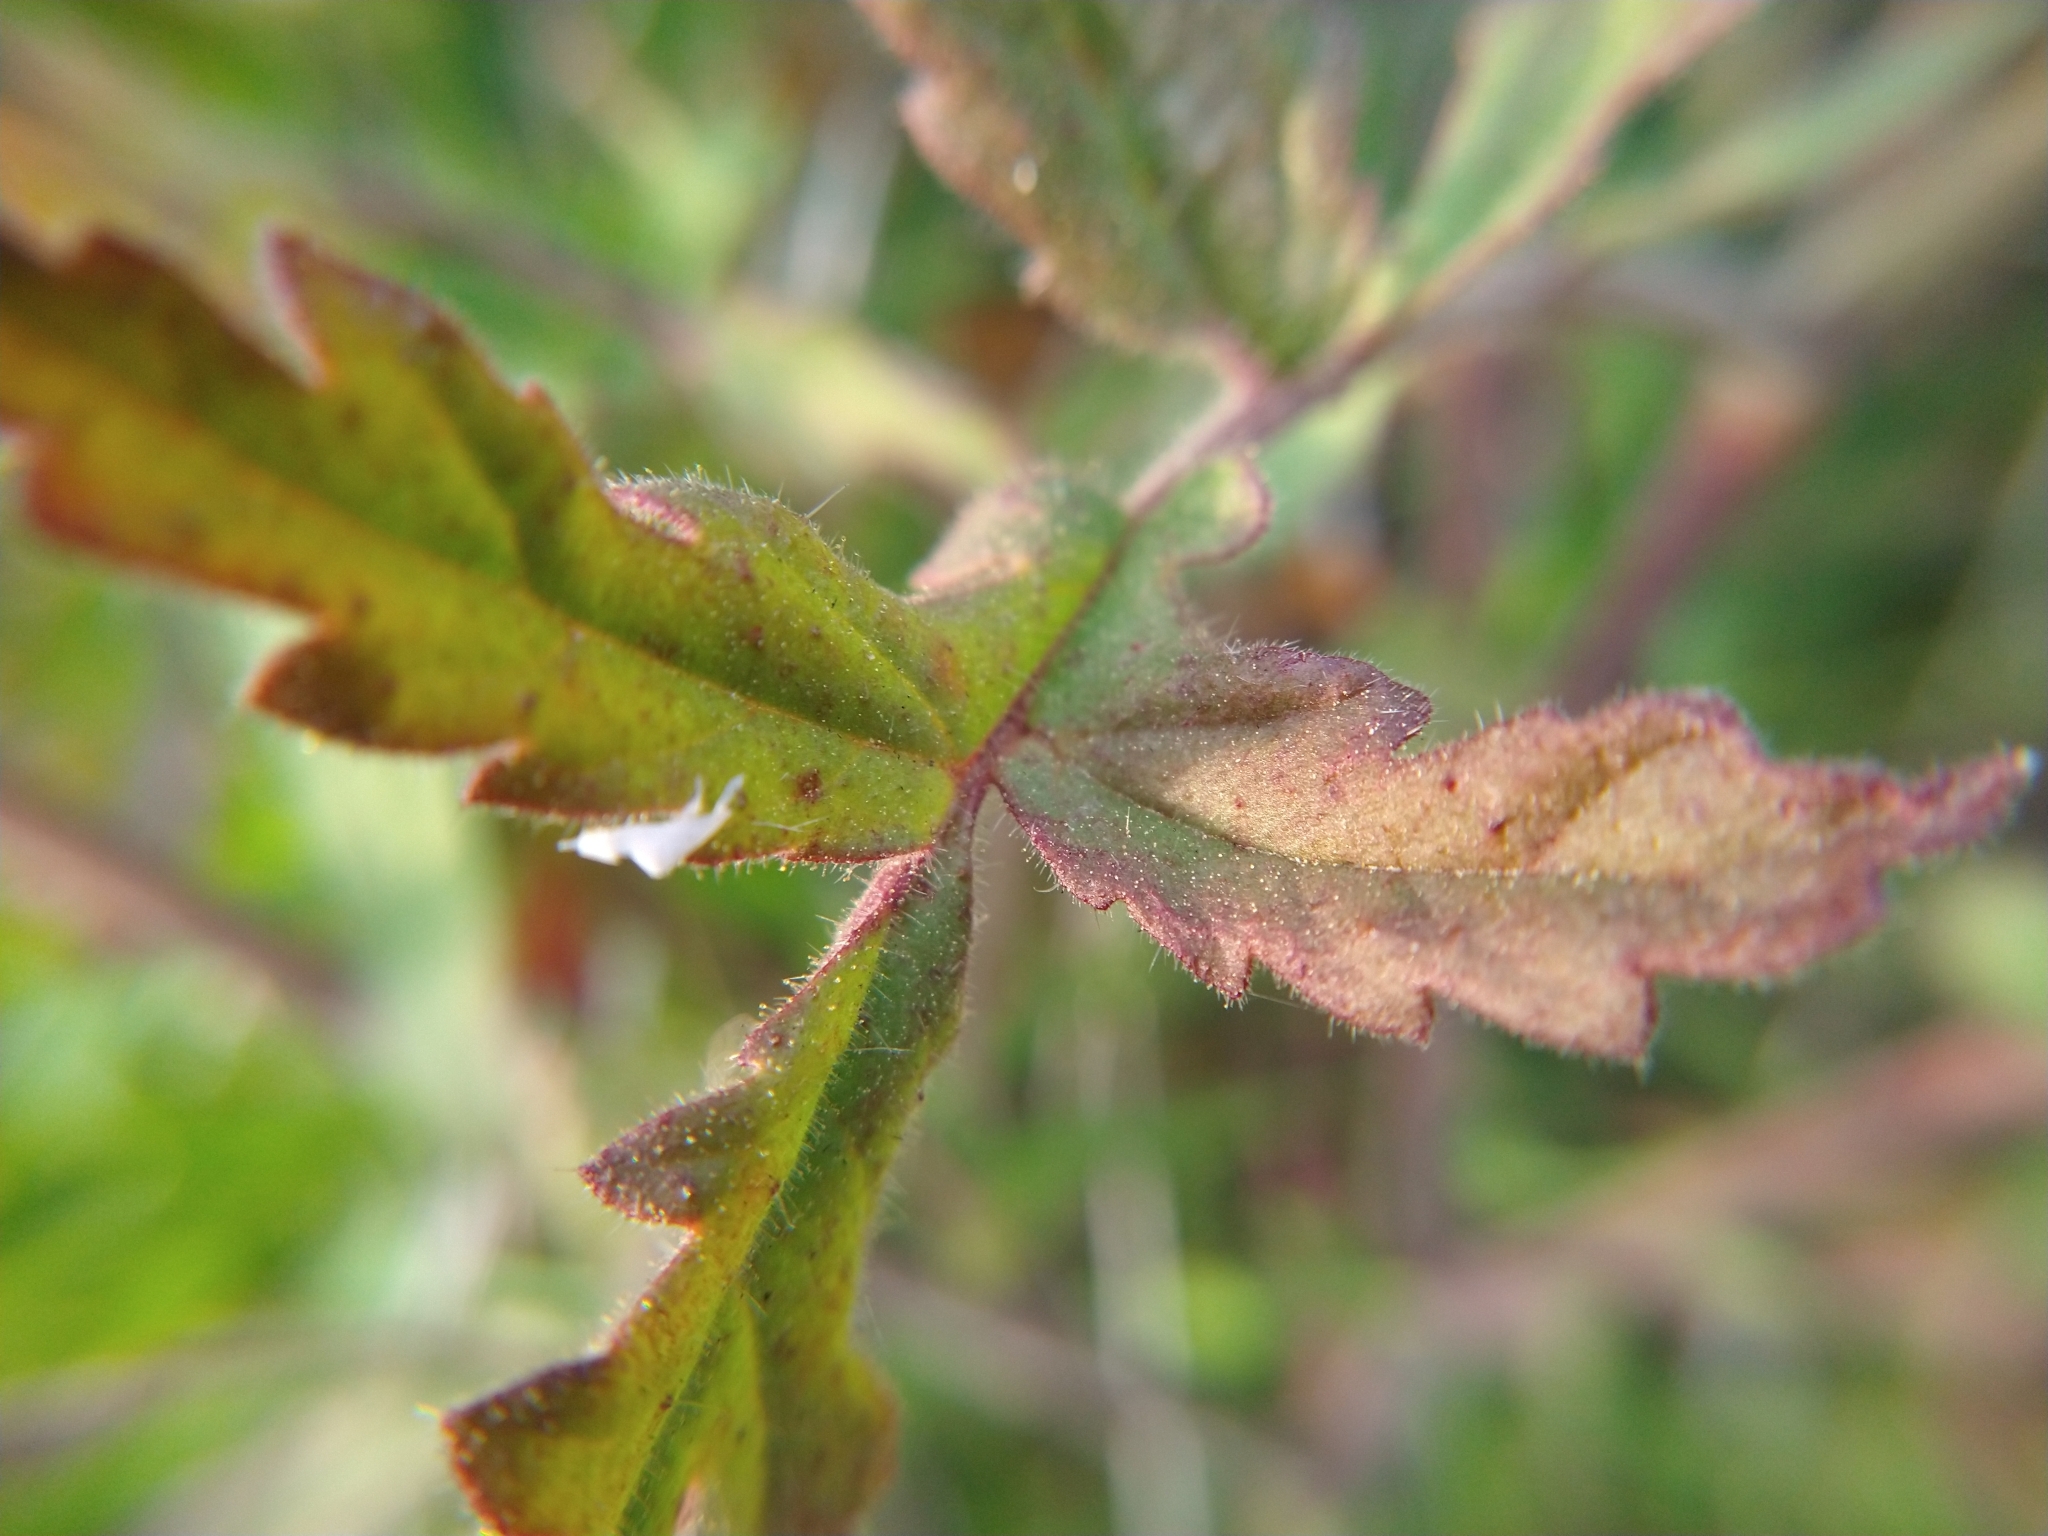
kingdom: Plantae
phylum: Tracheophyta
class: Magnoliopsida
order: Boraginales
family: Hydrophyllaceae
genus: Phacelia
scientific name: Phacelia cicutaria
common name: Caterpillar phacelia
